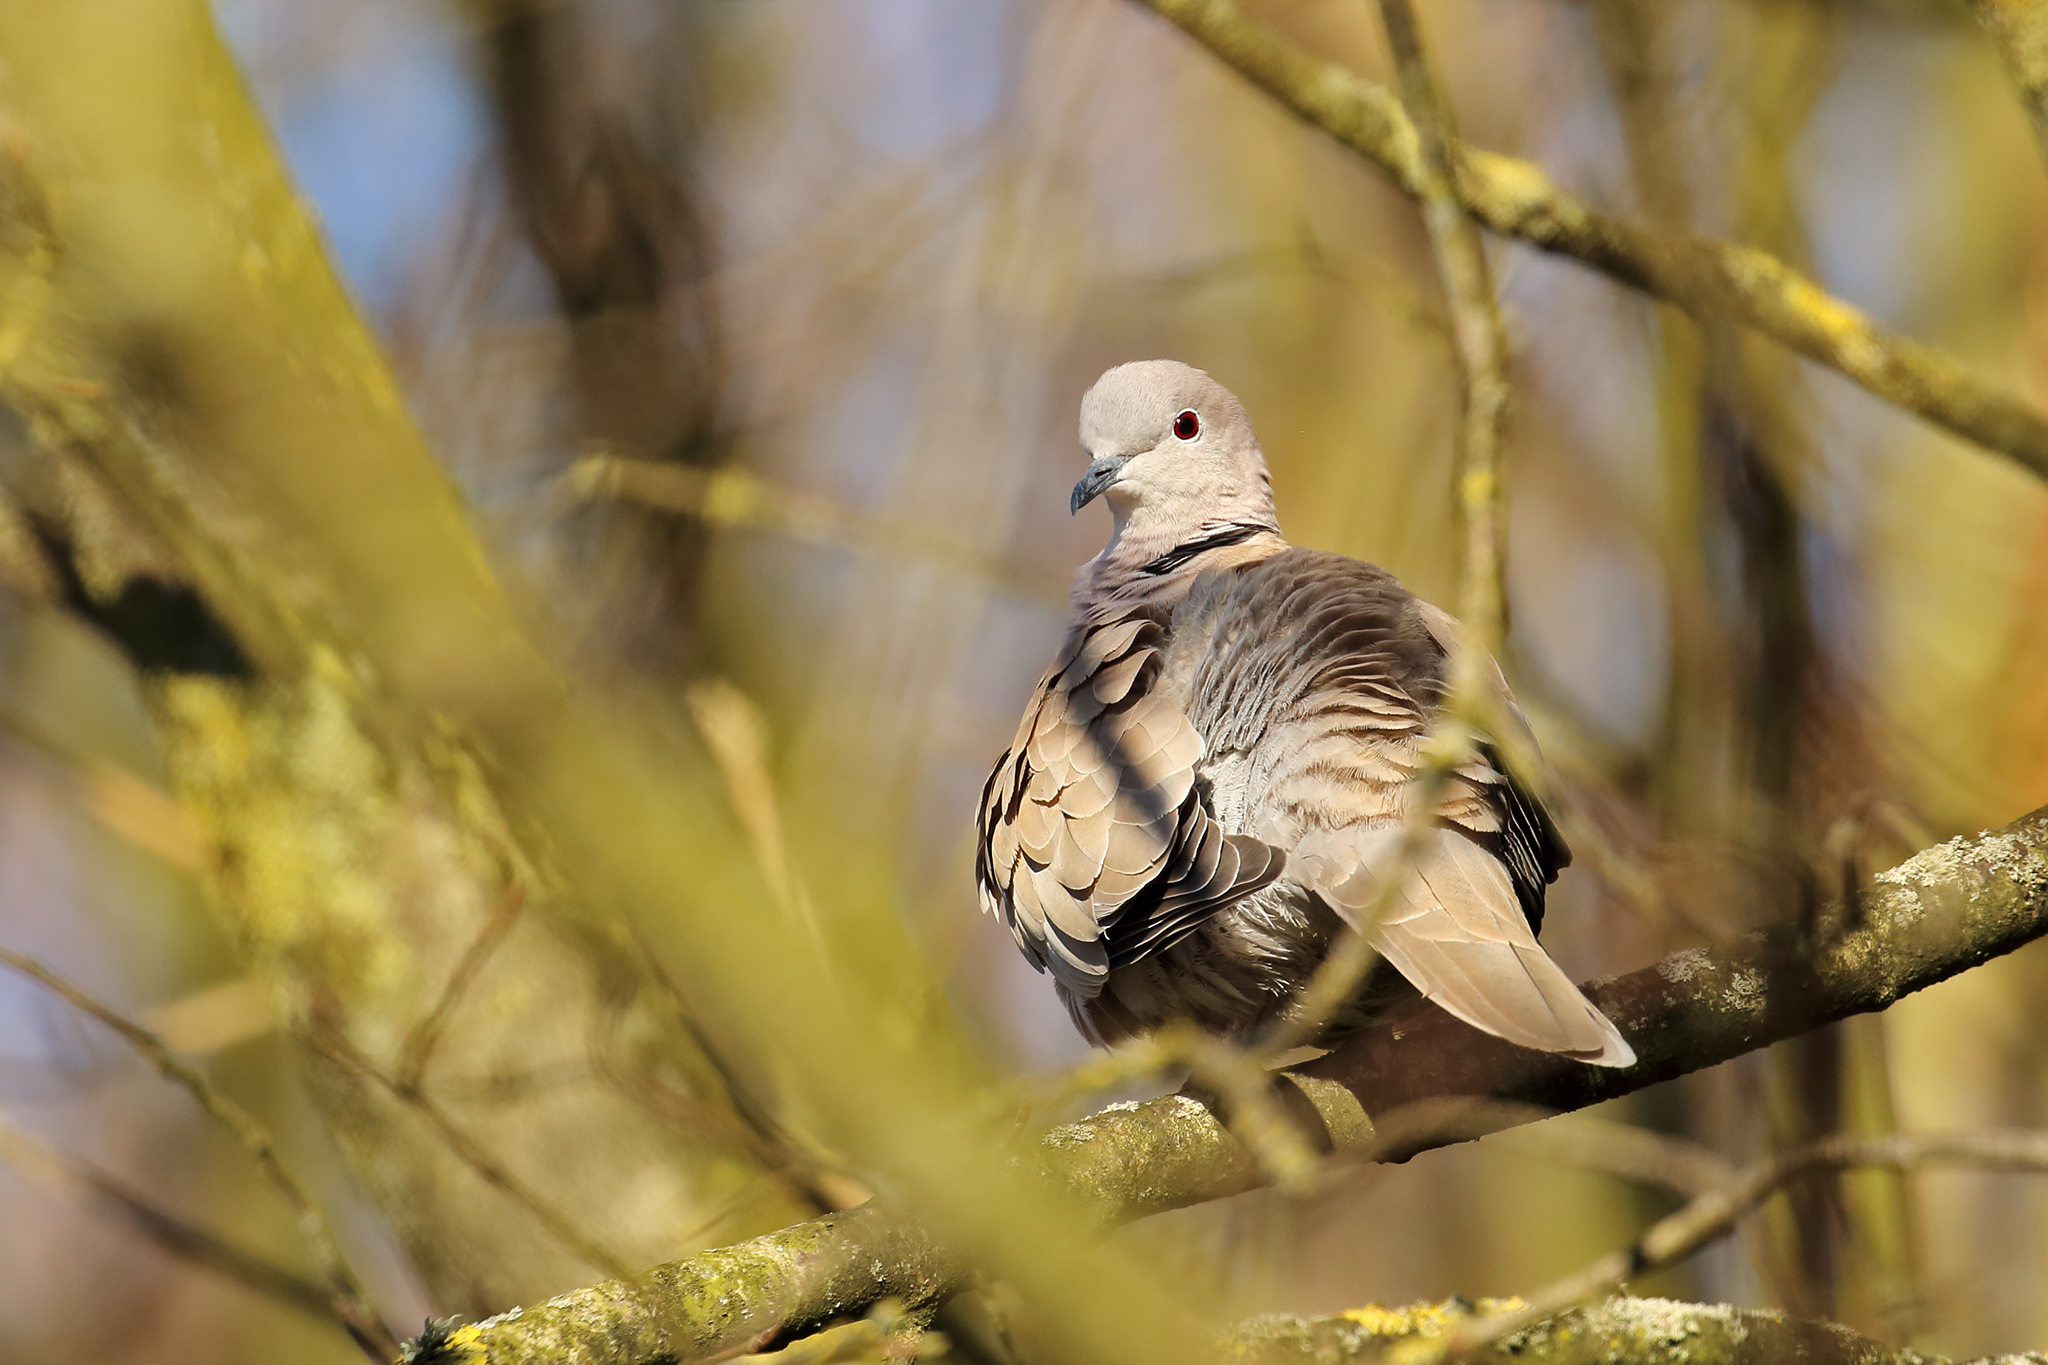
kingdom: Animalia
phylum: Chordata
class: Aves
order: Columbiformes
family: Columbidae
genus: Streptopelia
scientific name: Streptopelia decaocto
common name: Eurasian collared dove
